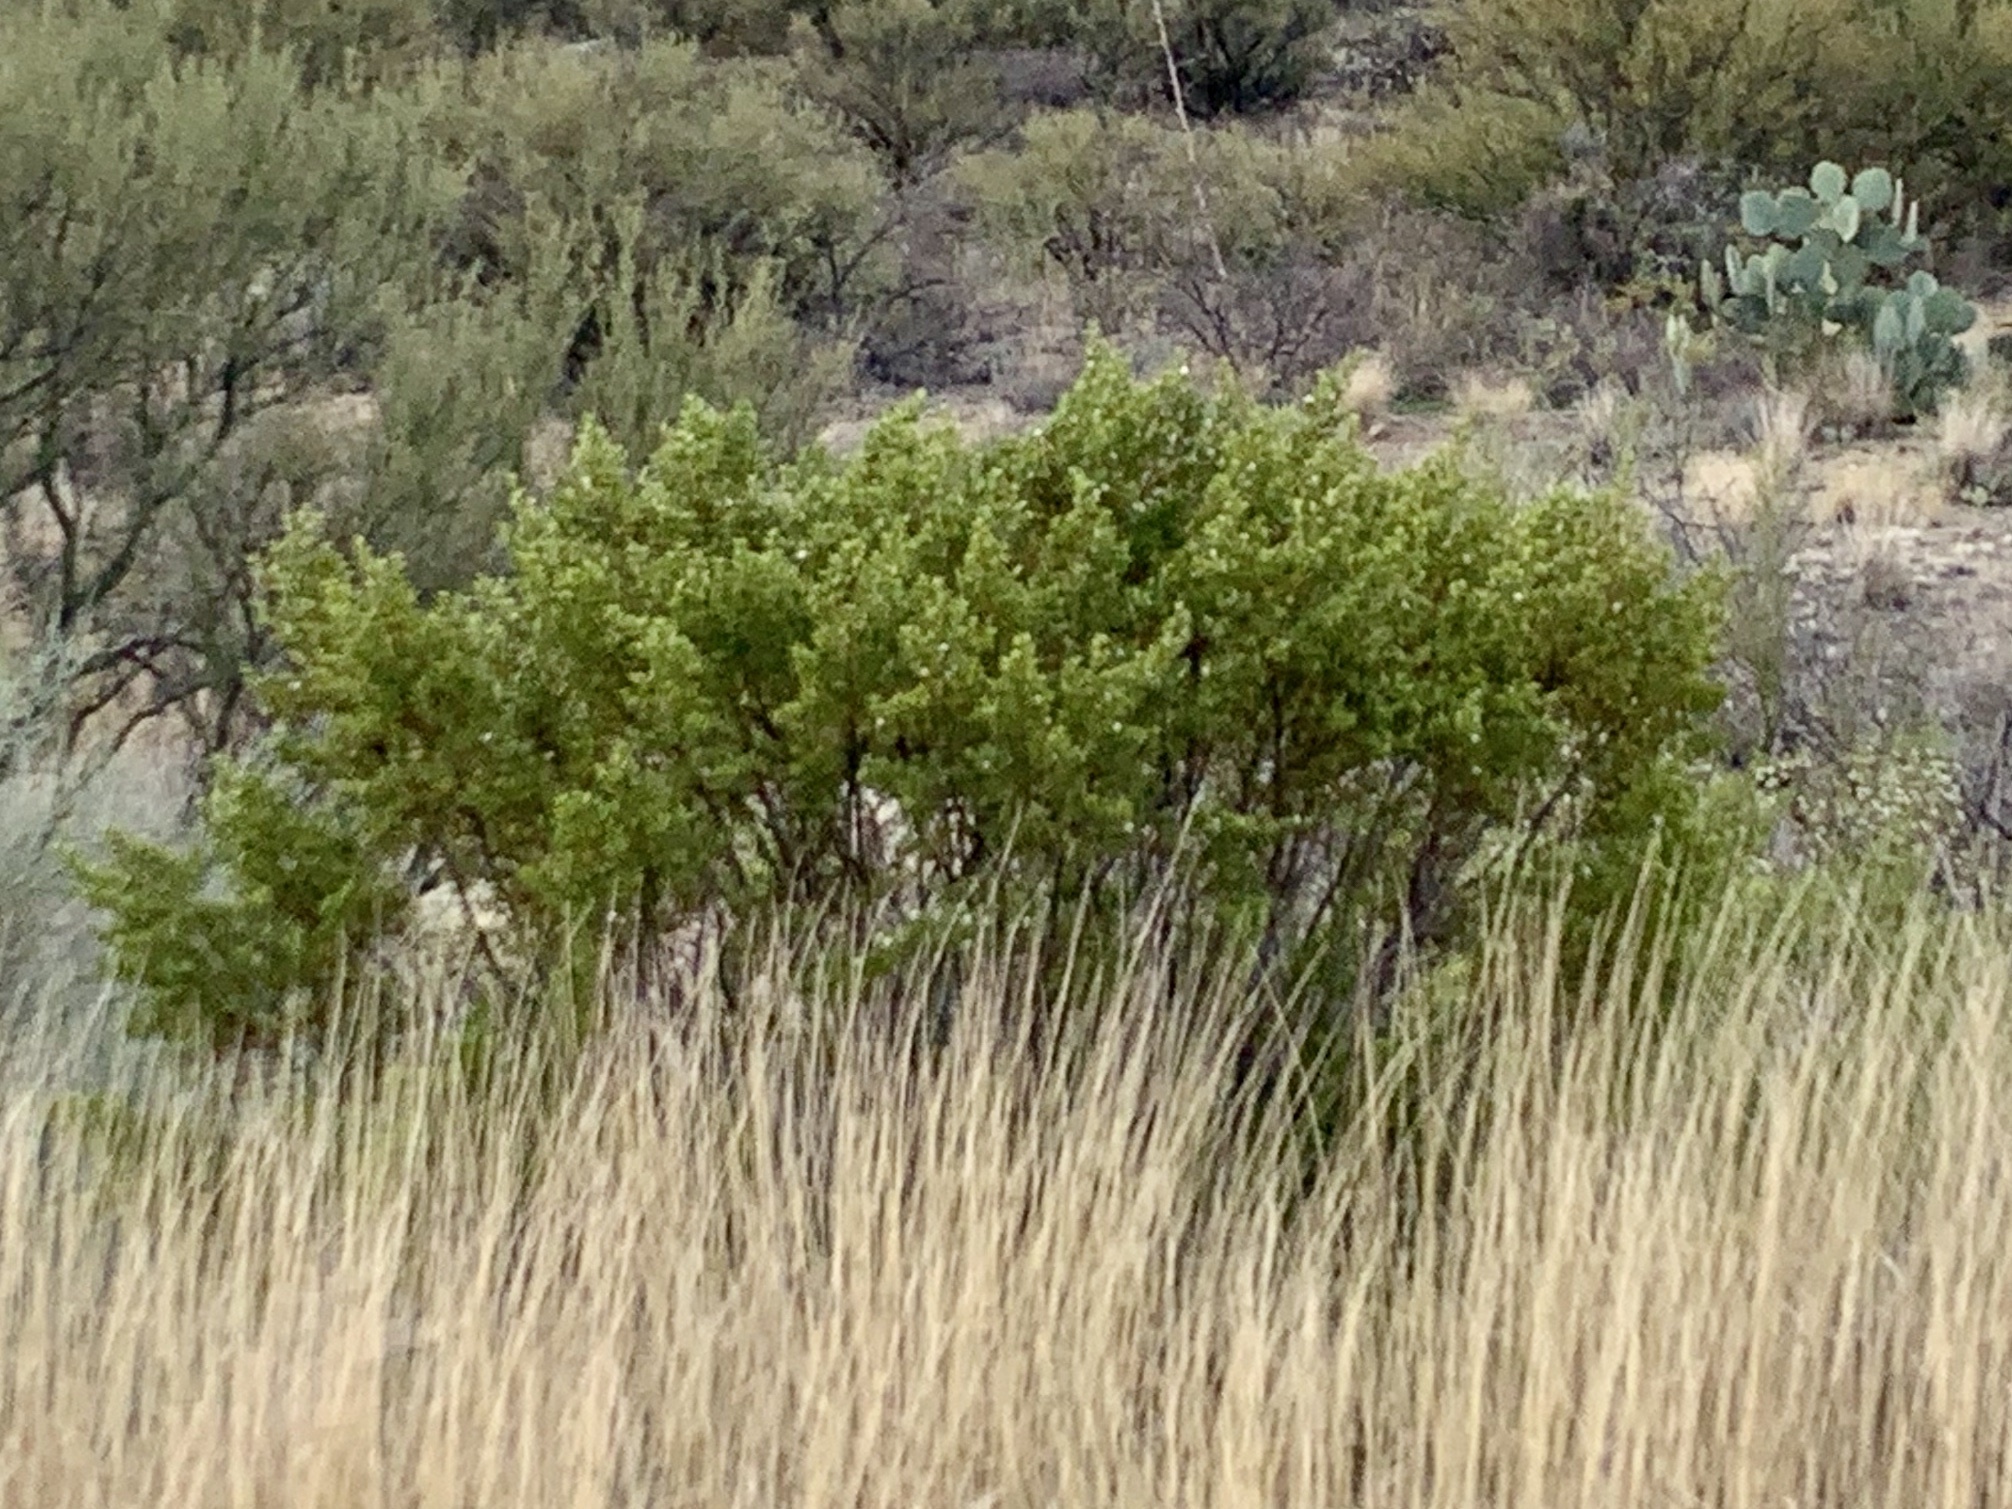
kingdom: Plantae
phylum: Tracheophyta
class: Magnoliopsida
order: Zygophyllales
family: Zygophyllaceae
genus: Larrea
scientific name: Larrea tridentata
